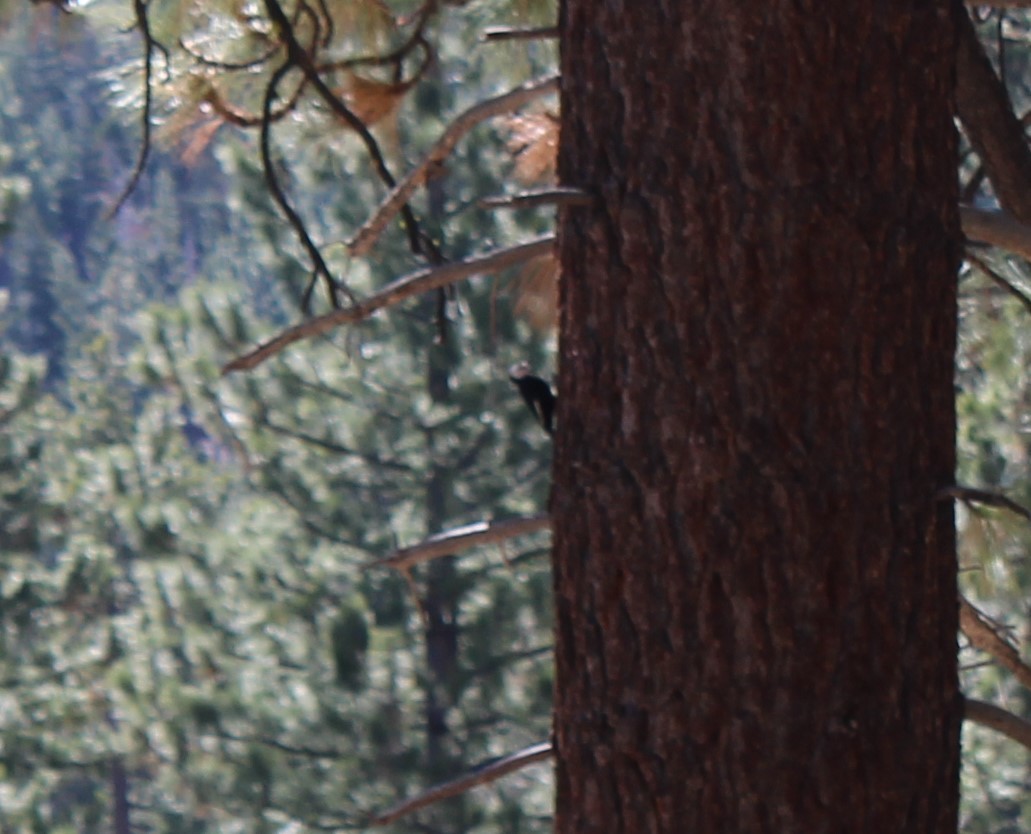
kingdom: Animalia
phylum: Chordata
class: Aves
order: Piciformes
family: Picidae
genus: Leuconotopicus
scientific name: Leuconotopicus albolarvatus
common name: White-headed woodpecker
